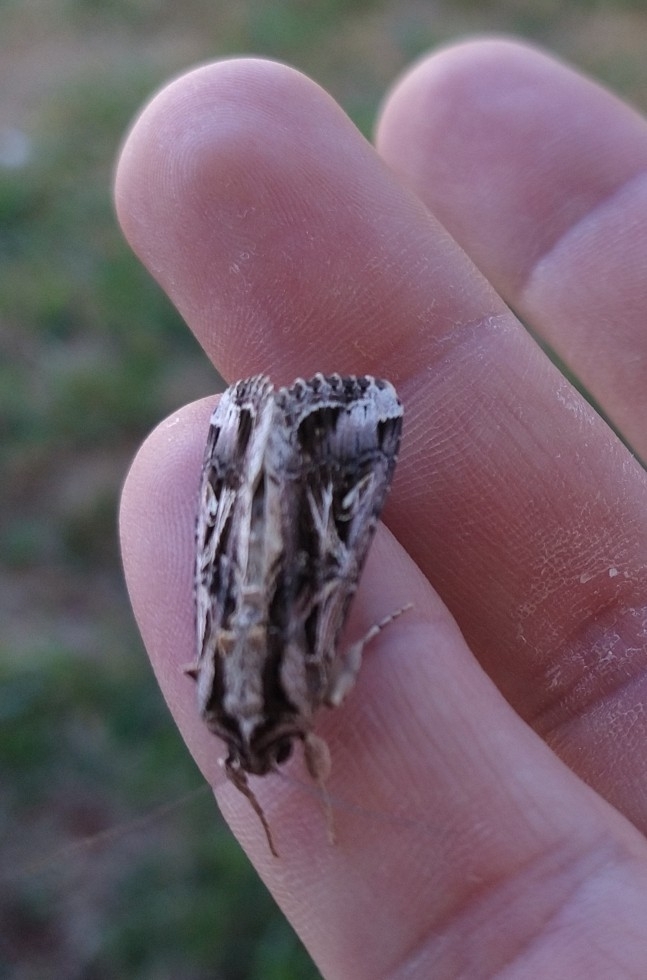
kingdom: Animalia
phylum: Arthropoda
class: Insecta
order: Lepidoptera
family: Noctuidae
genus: Spodoptera
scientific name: Spodoptera dolichos
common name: Sweetpotato armyworm
